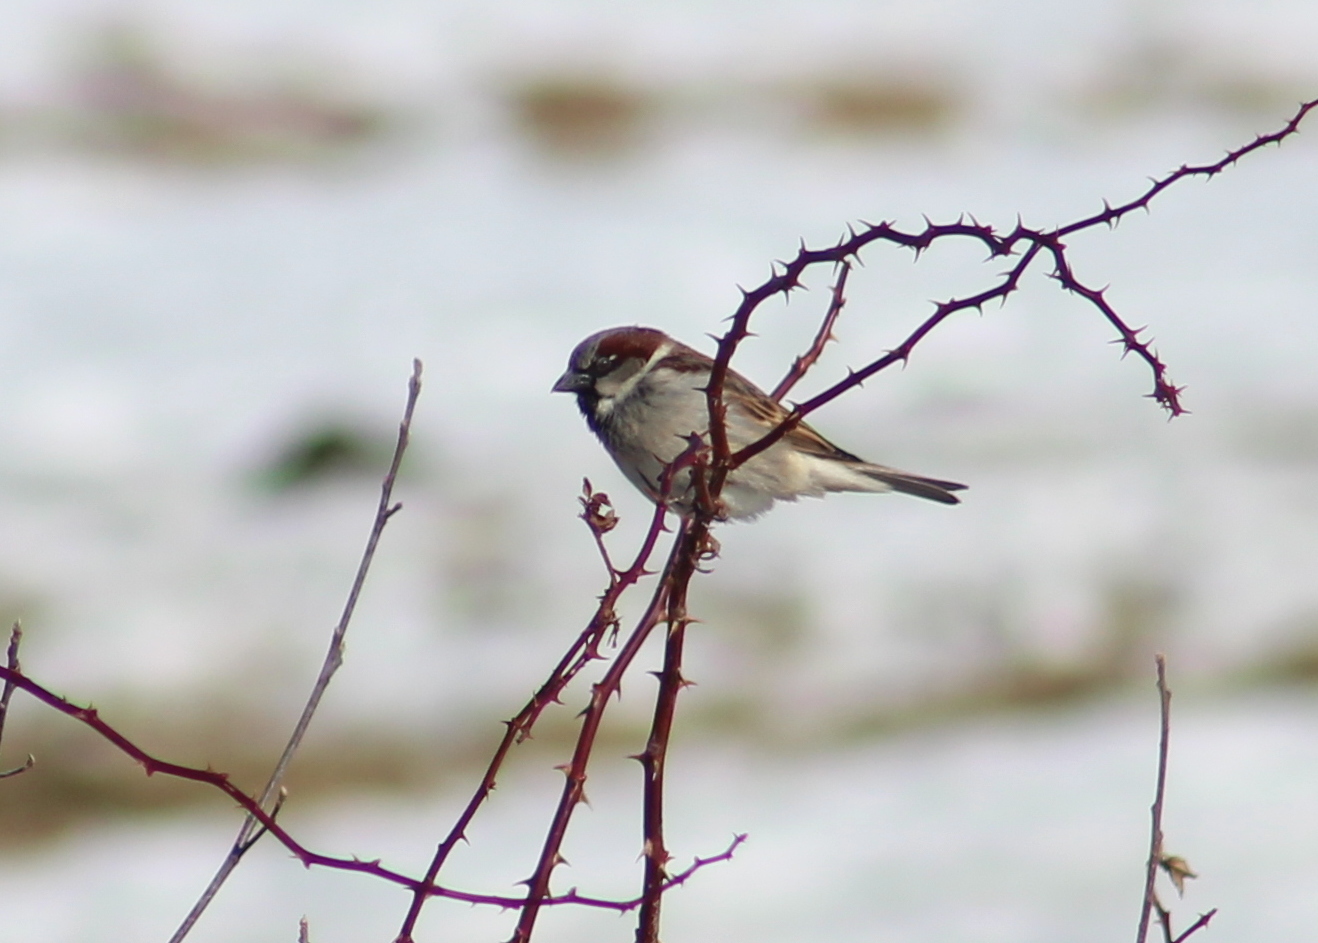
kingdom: Animalia
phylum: Chordata
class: Aves
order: Passeriformes
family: Passeridae
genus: Passer
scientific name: Passer domesticus
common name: House sparrow
